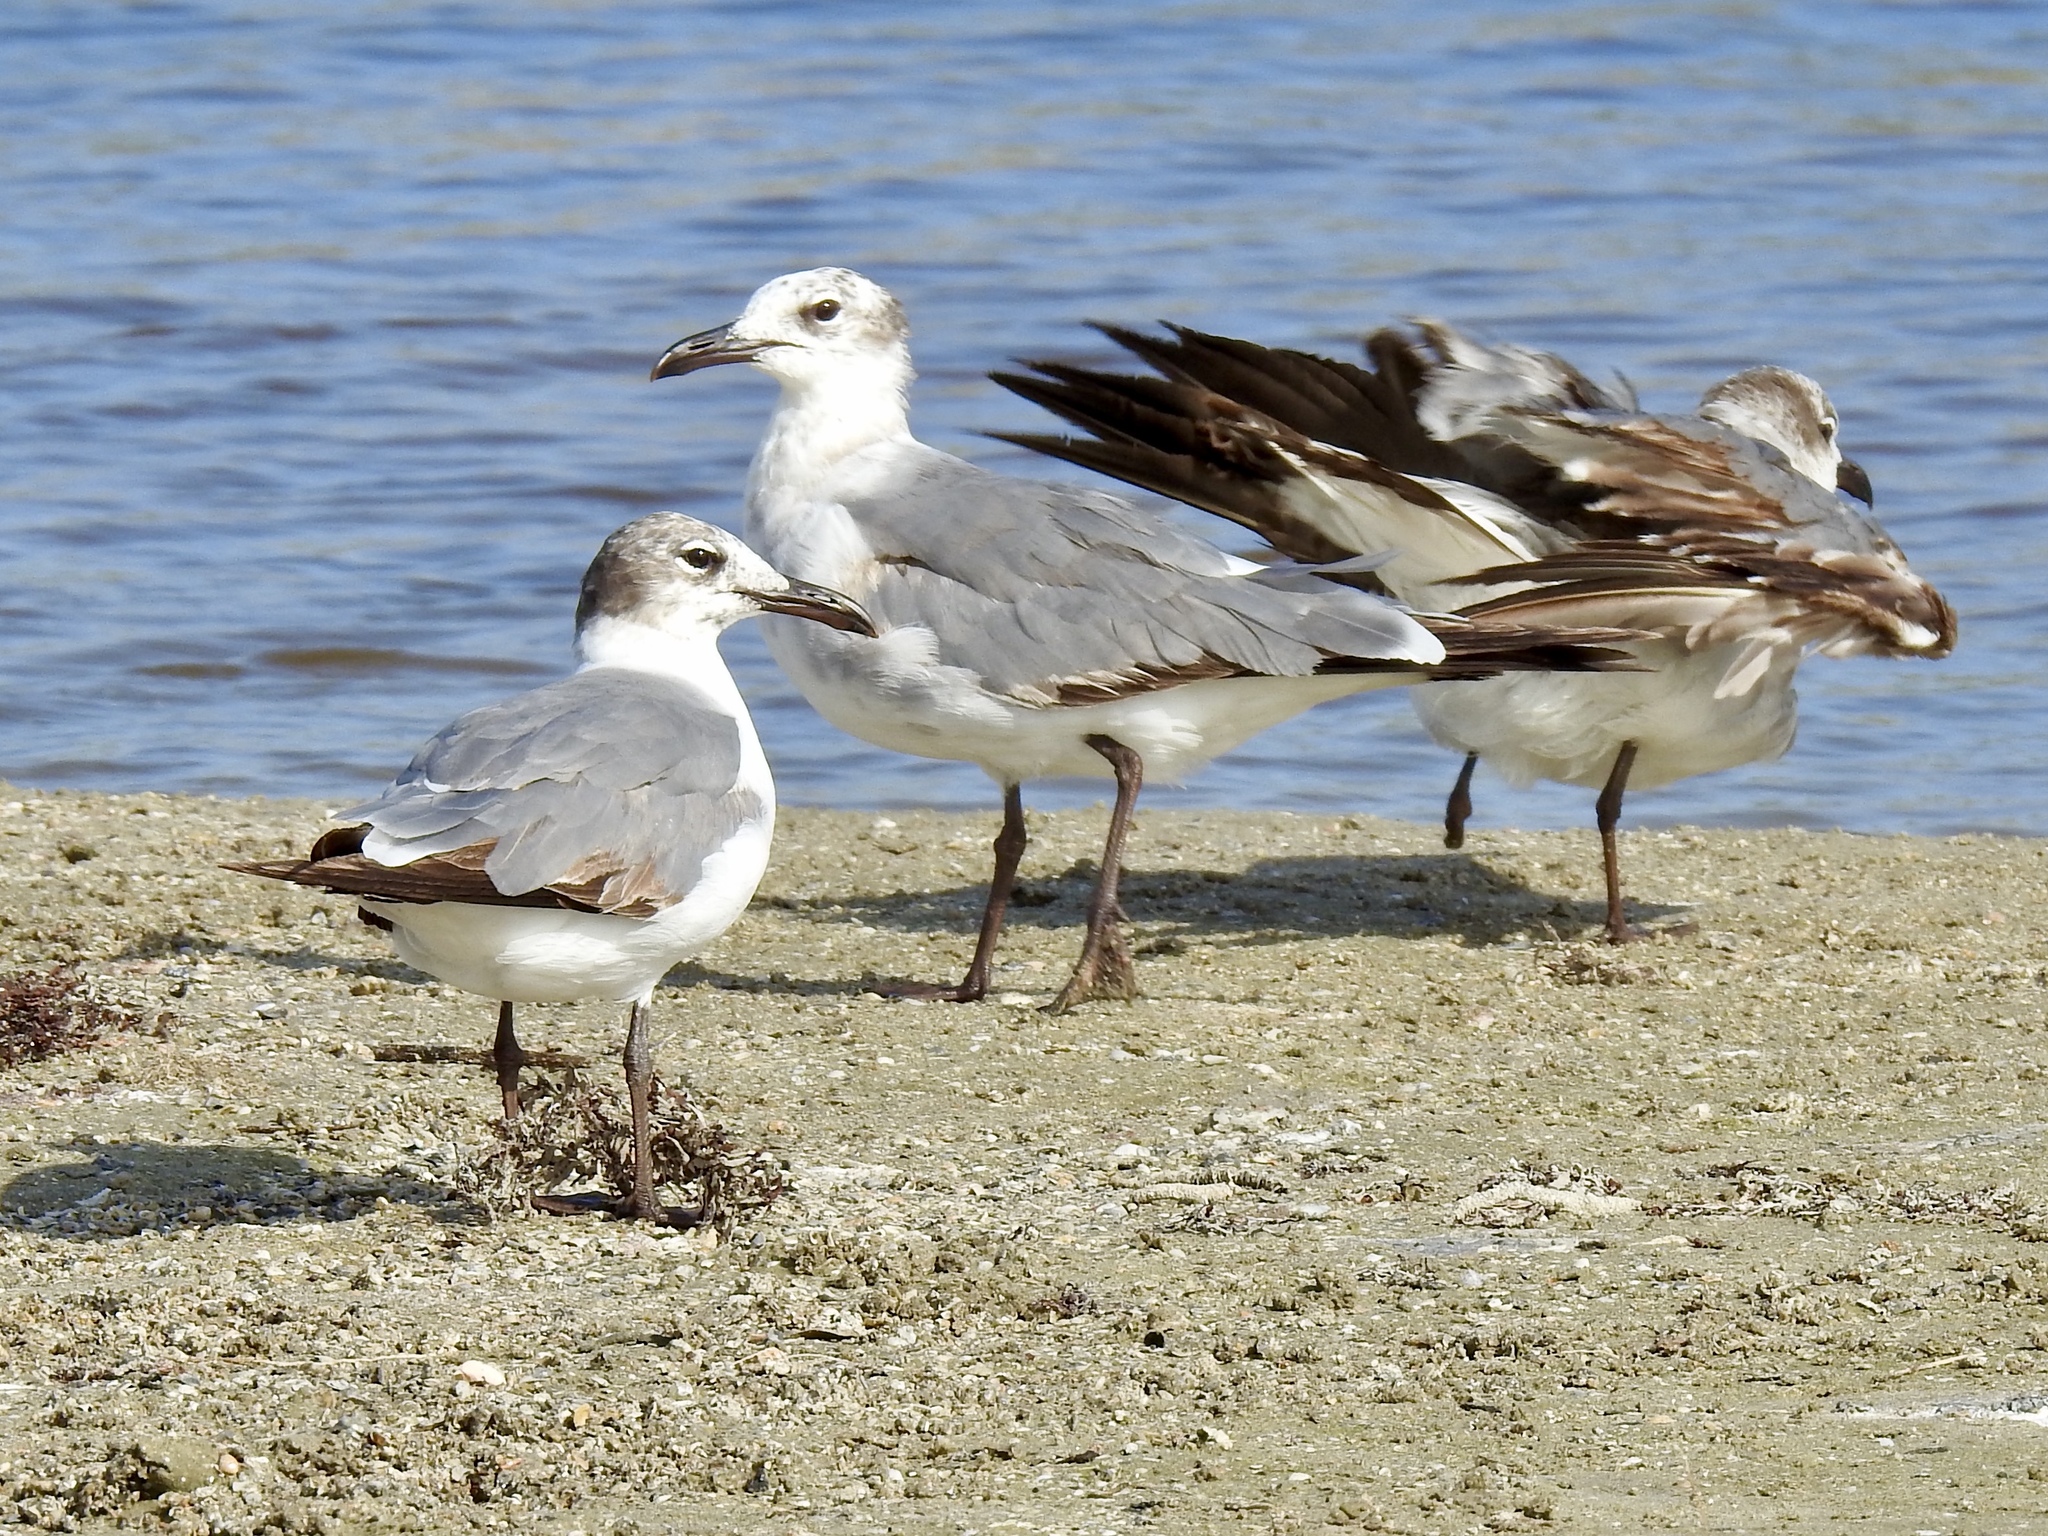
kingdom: Animalia
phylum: Chordata
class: Aves
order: Charadriiformes
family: Laridae
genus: Leucophaeus
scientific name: Leucophaeus atricilla
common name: Laughing gull
